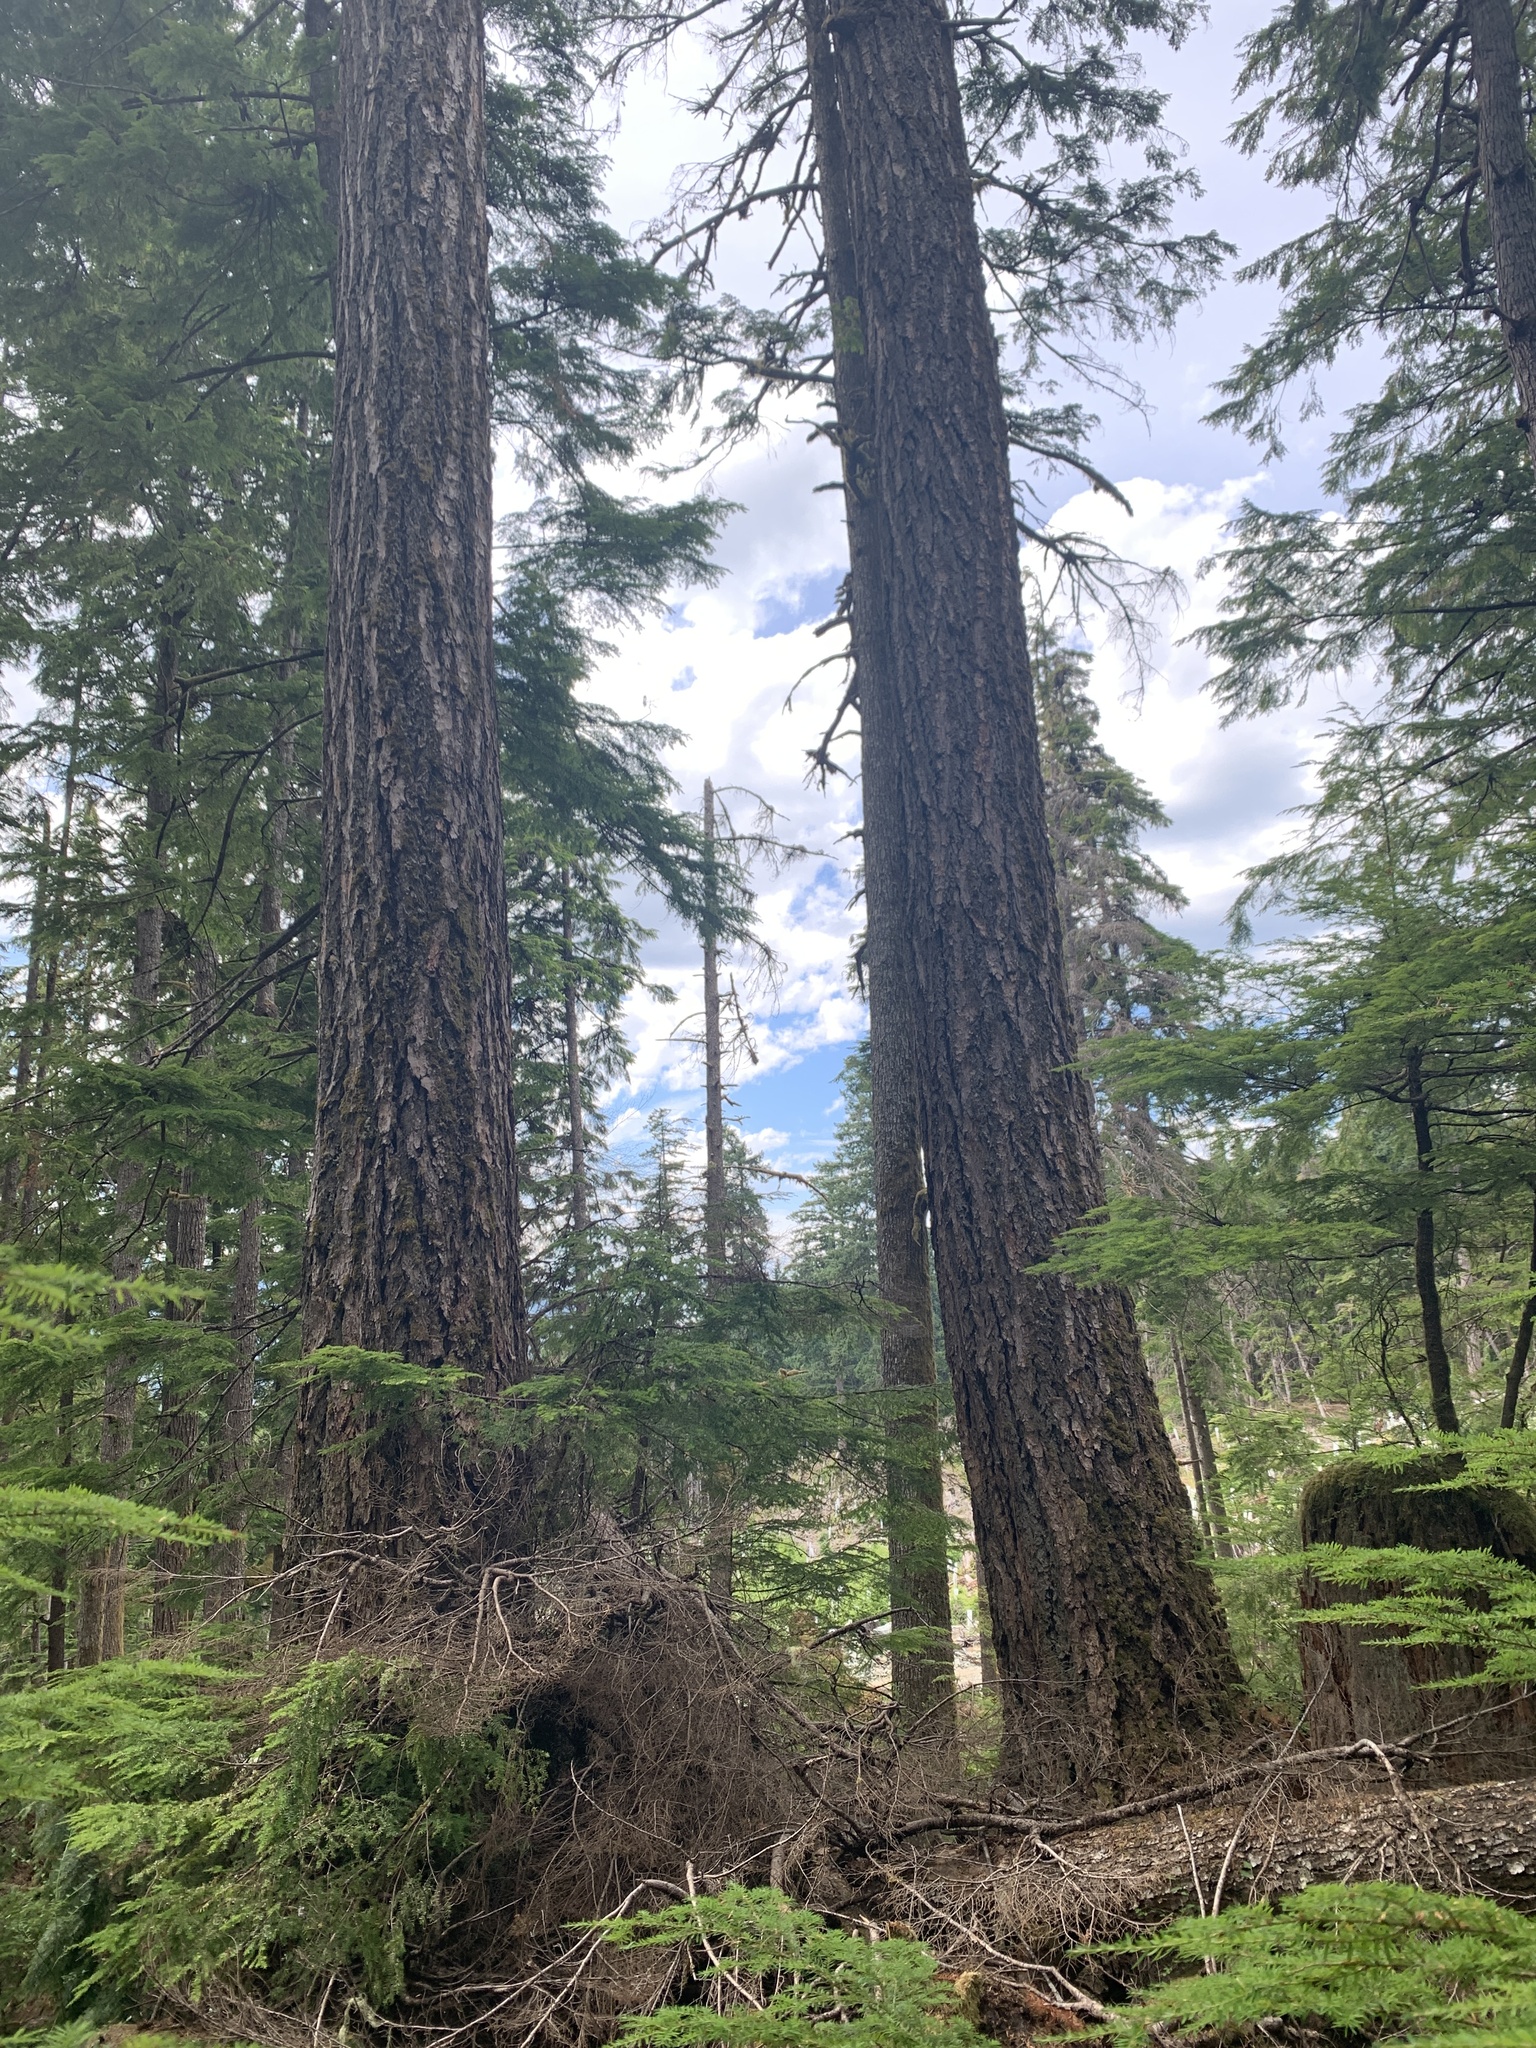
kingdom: Plantae
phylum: Tracheophyta
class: Pinopsida
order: Pinales
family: Pinaceae
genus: Pseudotsuga
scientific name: Pseudotsuga menziesii
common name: Douglas fir
